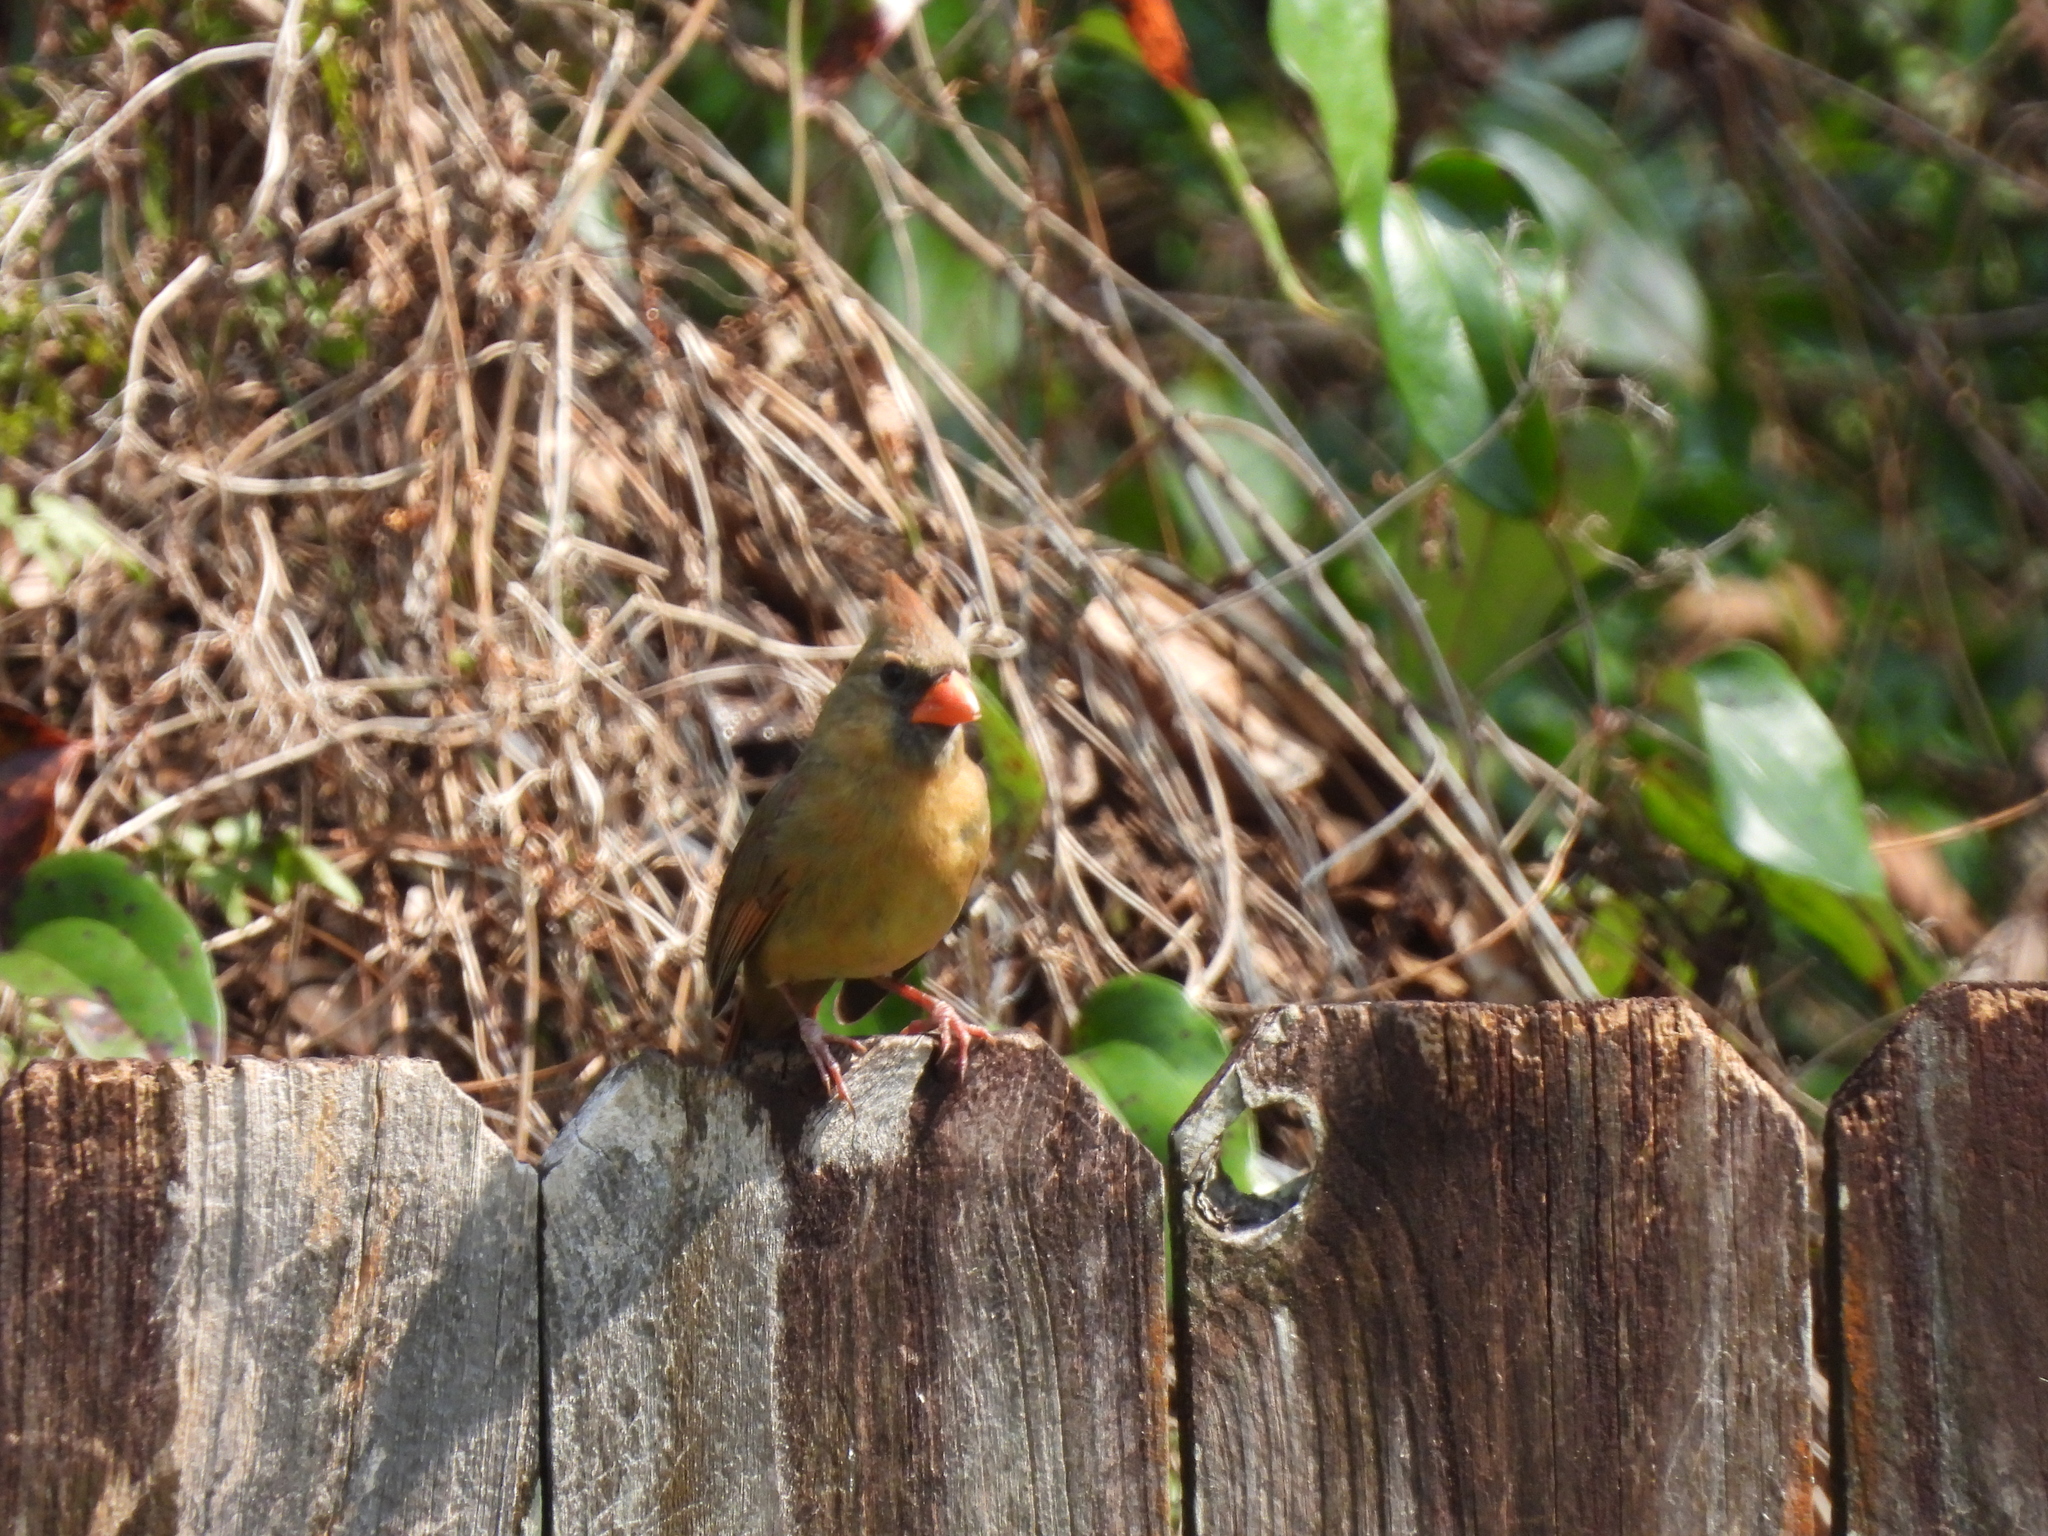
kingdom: Animalia
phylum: Chordata
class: Aves
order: Passeriformes
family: Cardinalidae
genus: Cardinalis
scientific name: Cardinalis cardinalis
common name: Northern cardinal
